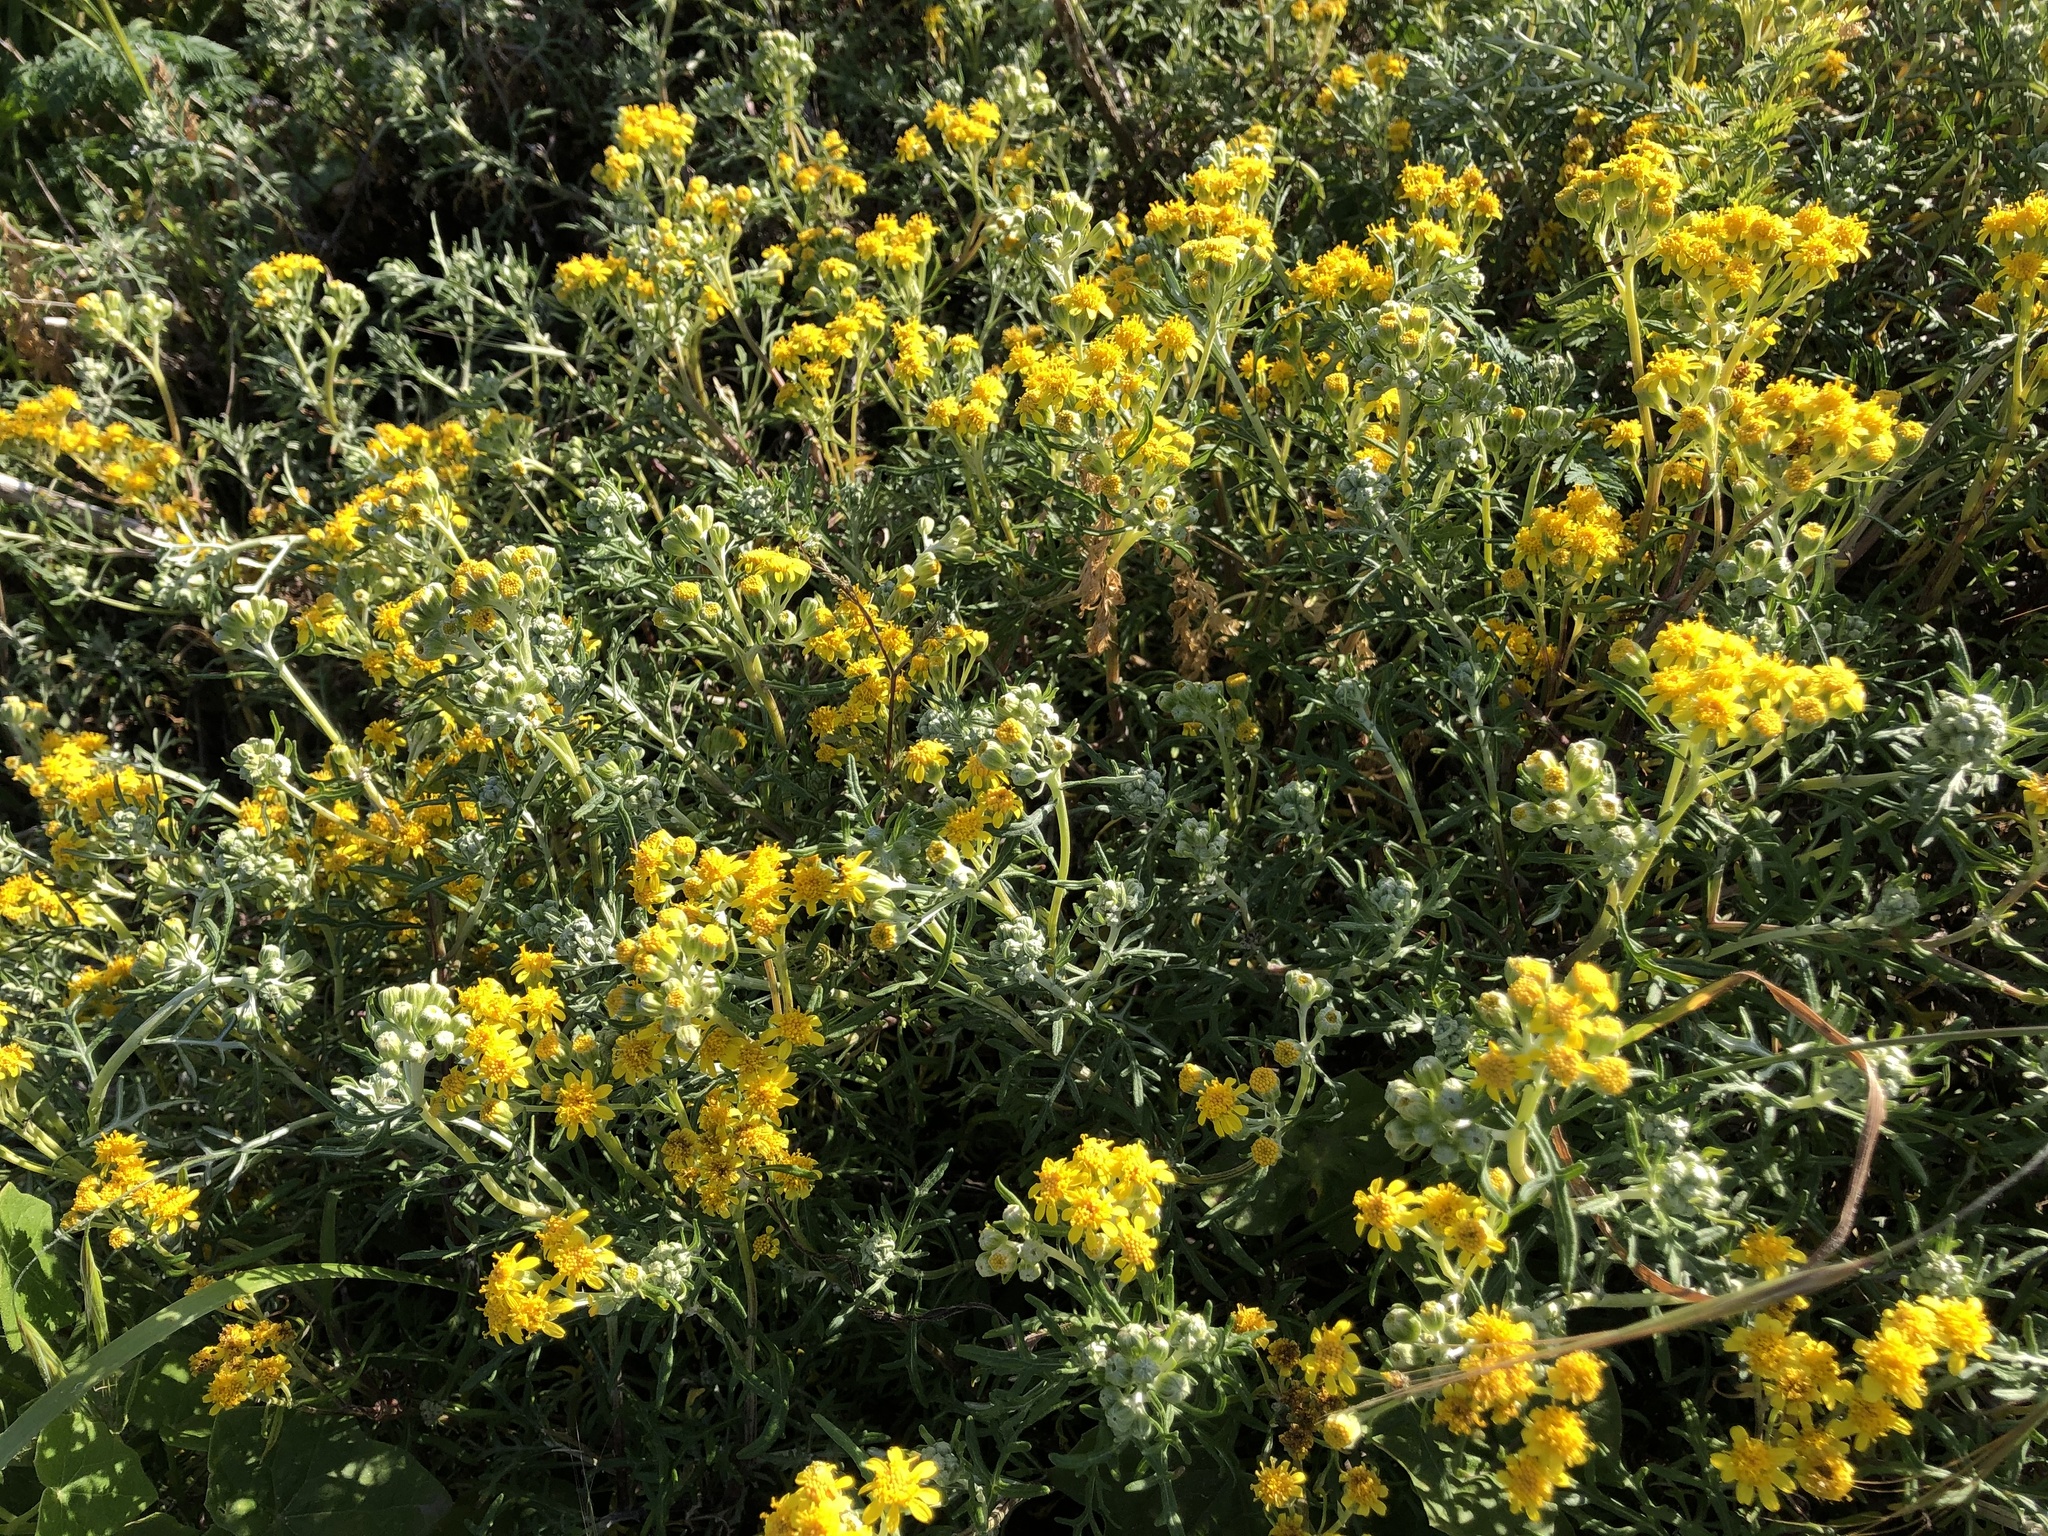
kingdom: Plantae
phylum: Tracheophyta
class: Magnoliopsida
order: Asterales
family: Asteraceae
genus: Eriophyllum
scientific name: Eriophyllum staechadifolium
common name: Lizardtail
